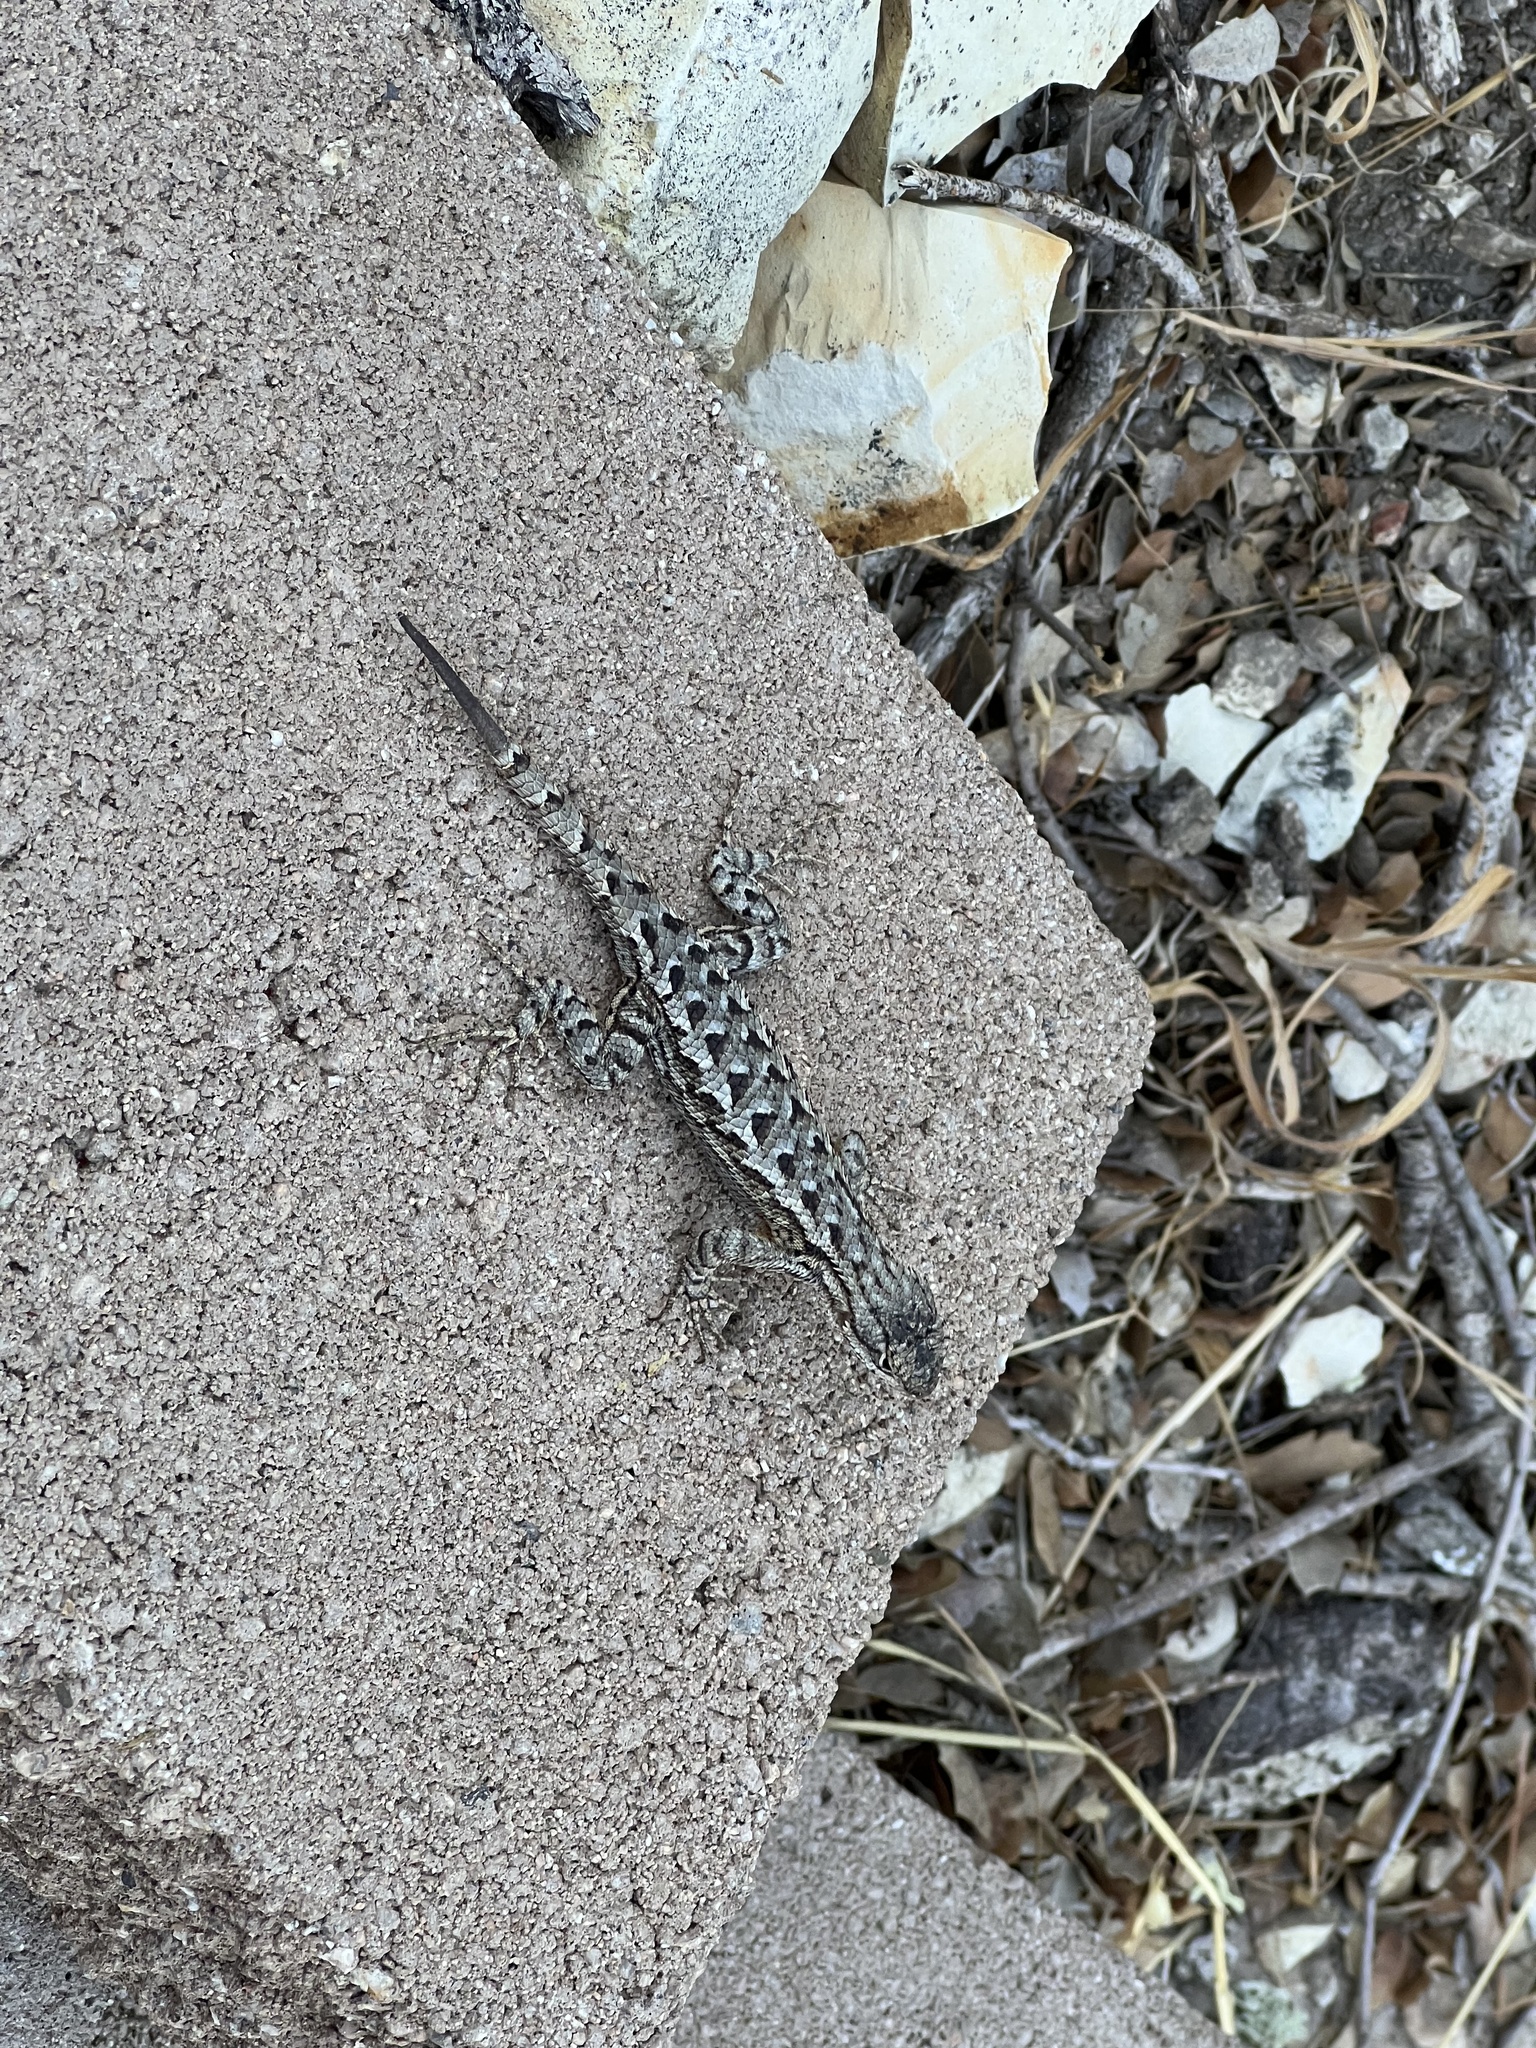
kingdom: Animalia
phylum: Chordata
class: Squamata
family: Phrynosomatidae
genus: Sceloporus
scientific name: Sceloporus occidentalis
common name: Western fence lizard
